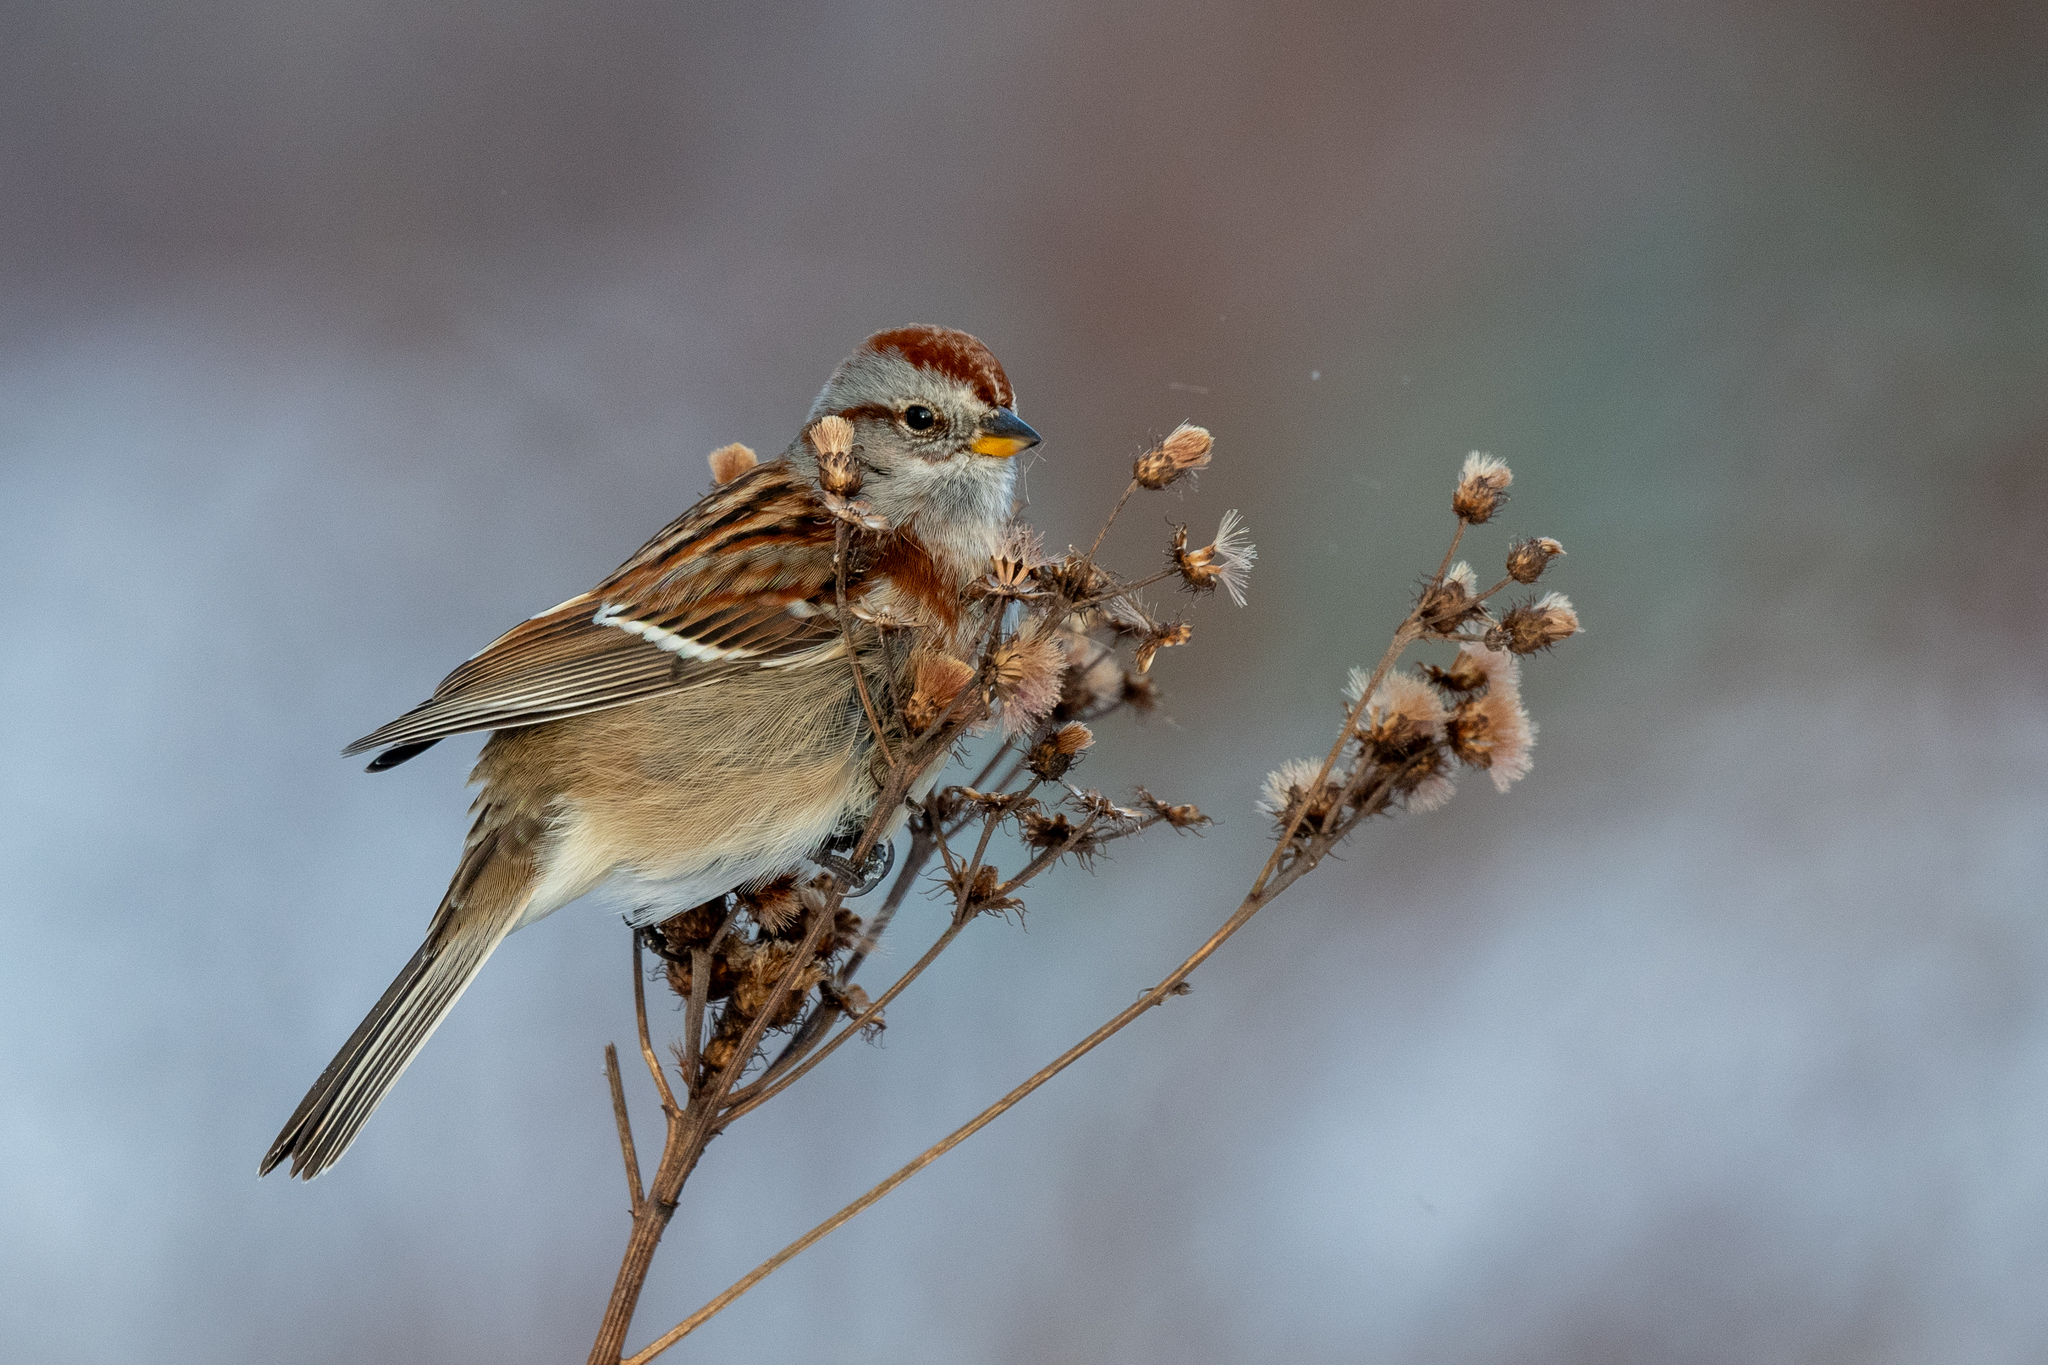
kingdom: Animalia
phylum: Chordata
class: Aves
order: Passeriformes
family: Passerellidae
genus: Spizelloides
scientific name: Spizelloides arborea
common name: American tree sparrow
